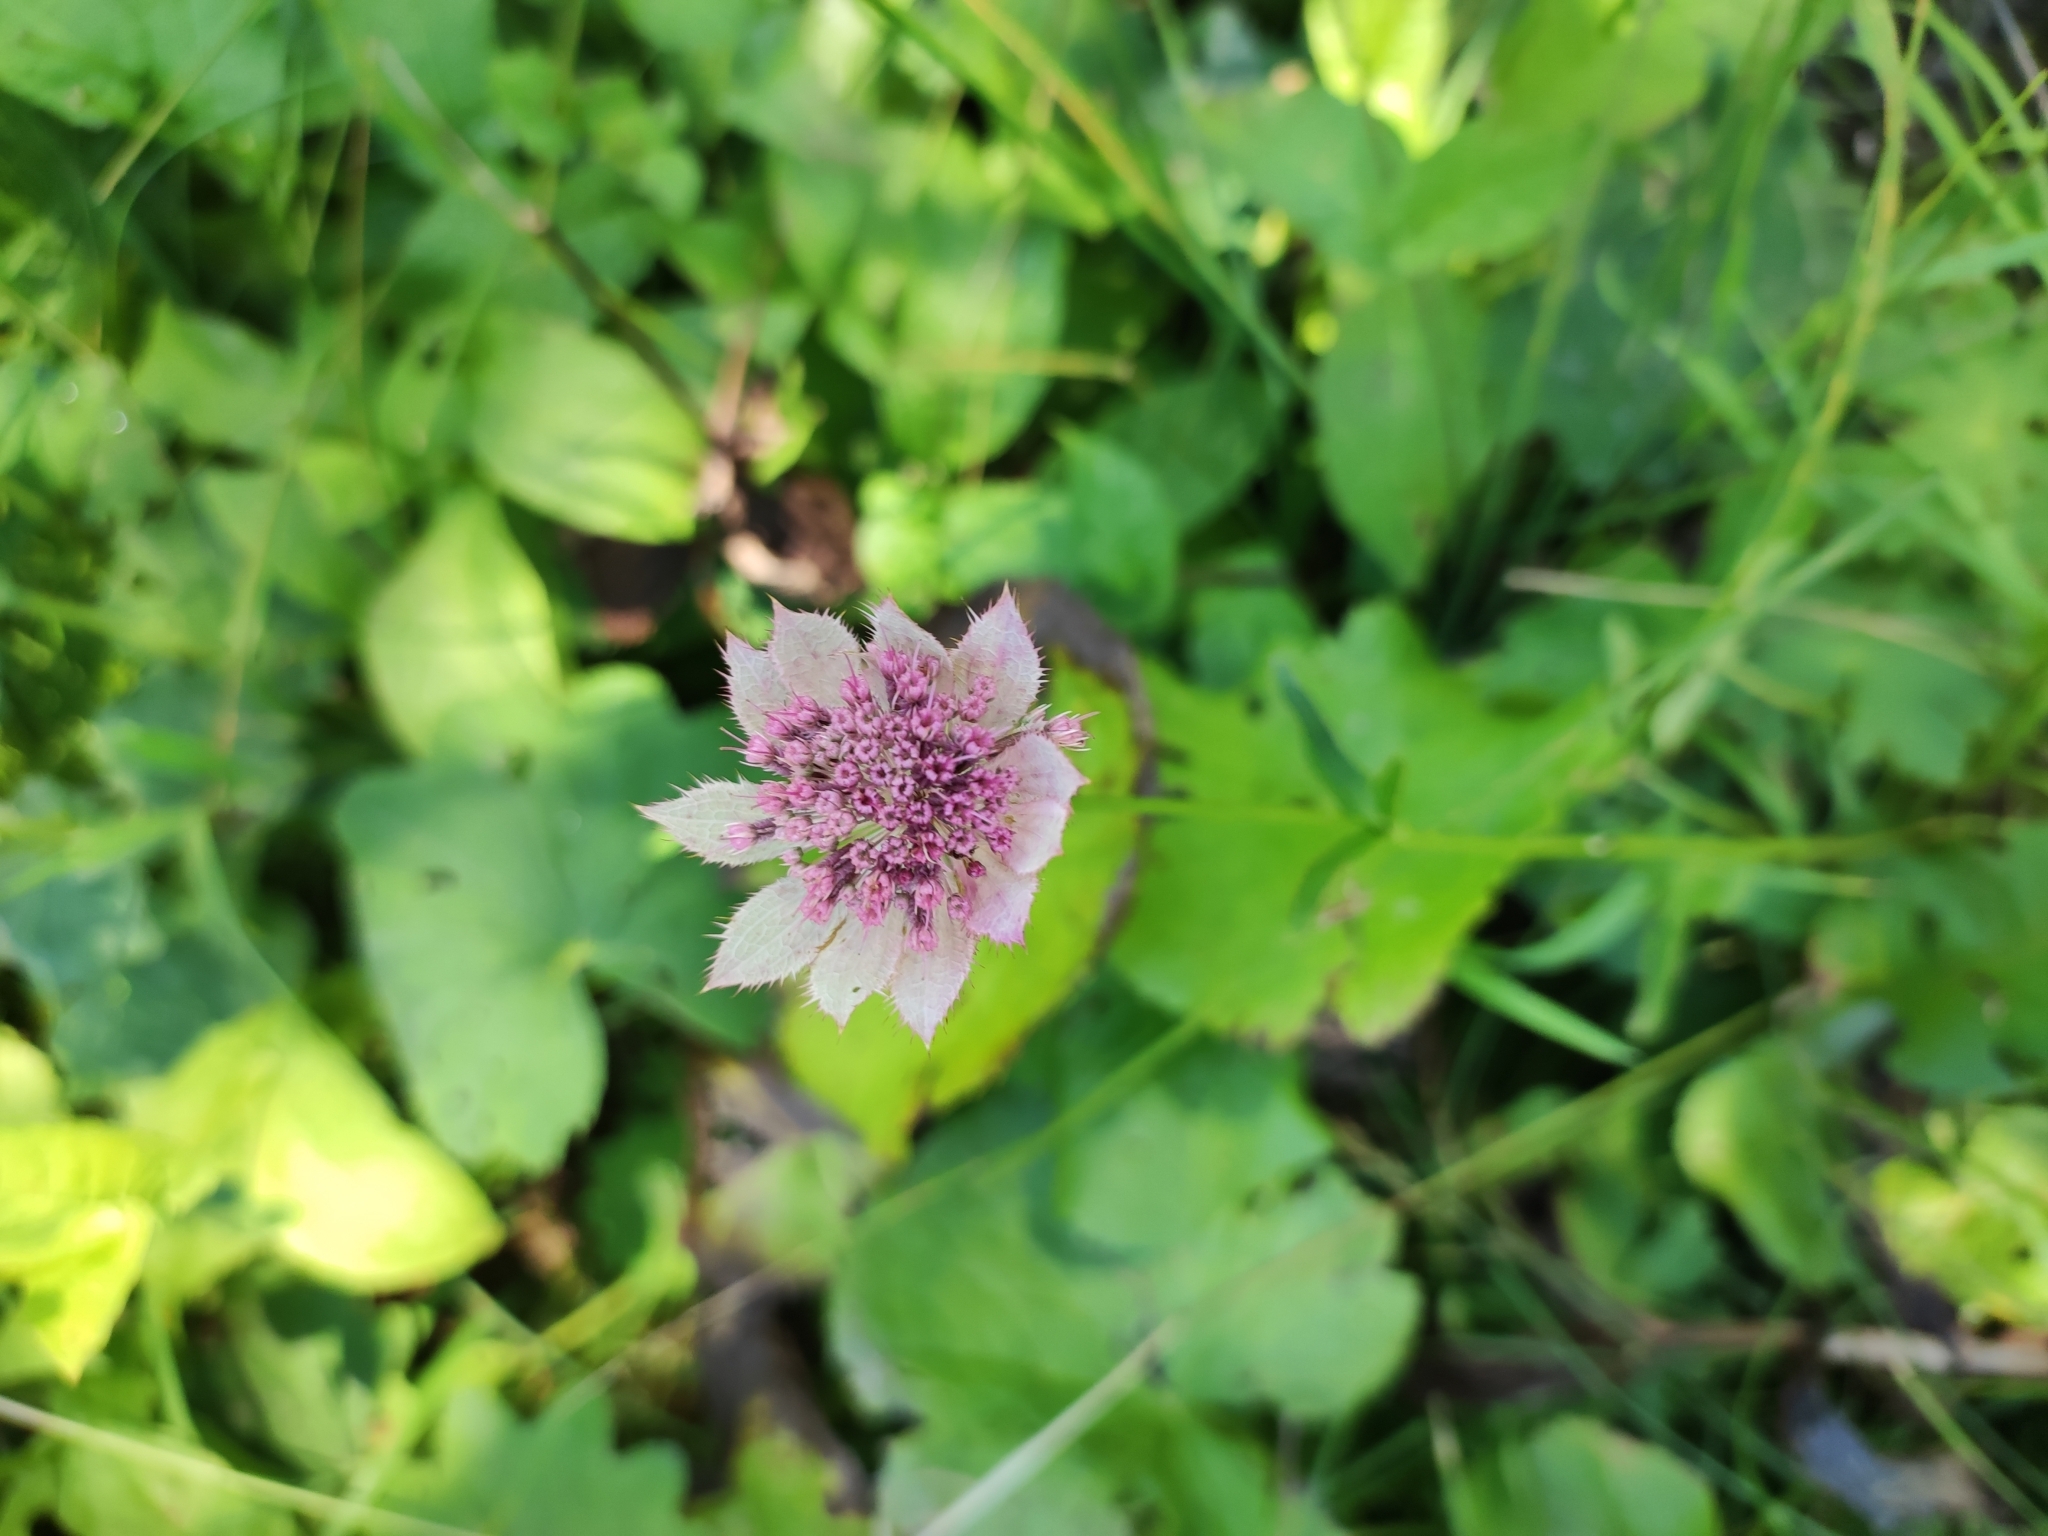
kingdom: Plantae
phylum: Tracheophyta
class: Magnoliopsida
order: Apiales
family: Apiaceae
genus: Astrantia
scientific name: Astrantia maxima
